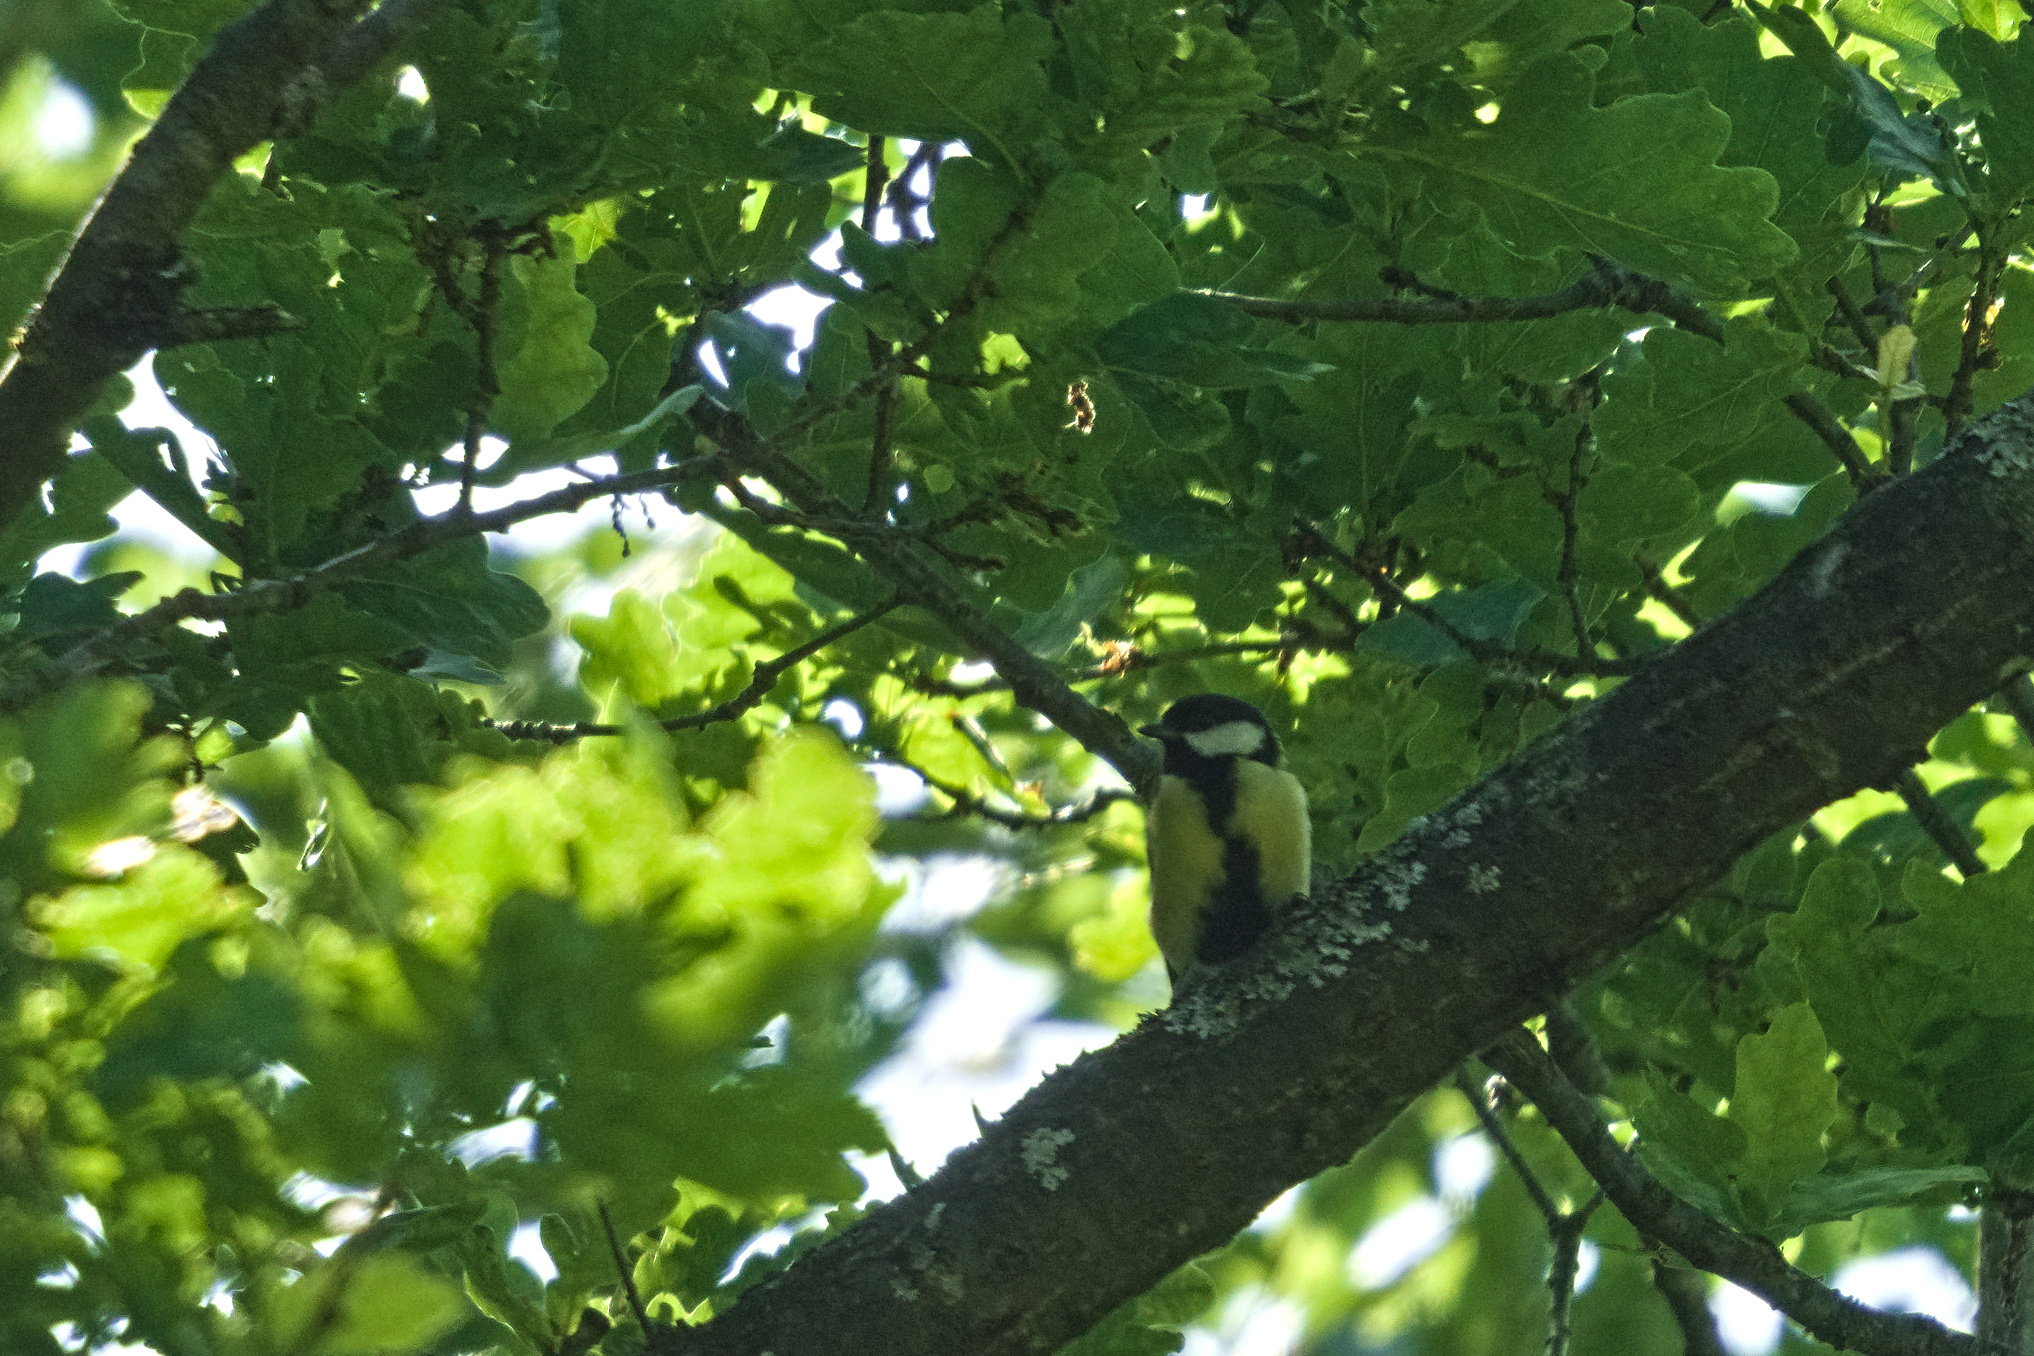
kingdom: Animalia
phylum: Chordata
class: Aves
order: Passeriformes
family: Paridae
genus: Parus
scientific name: Parus major
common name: Great tit
